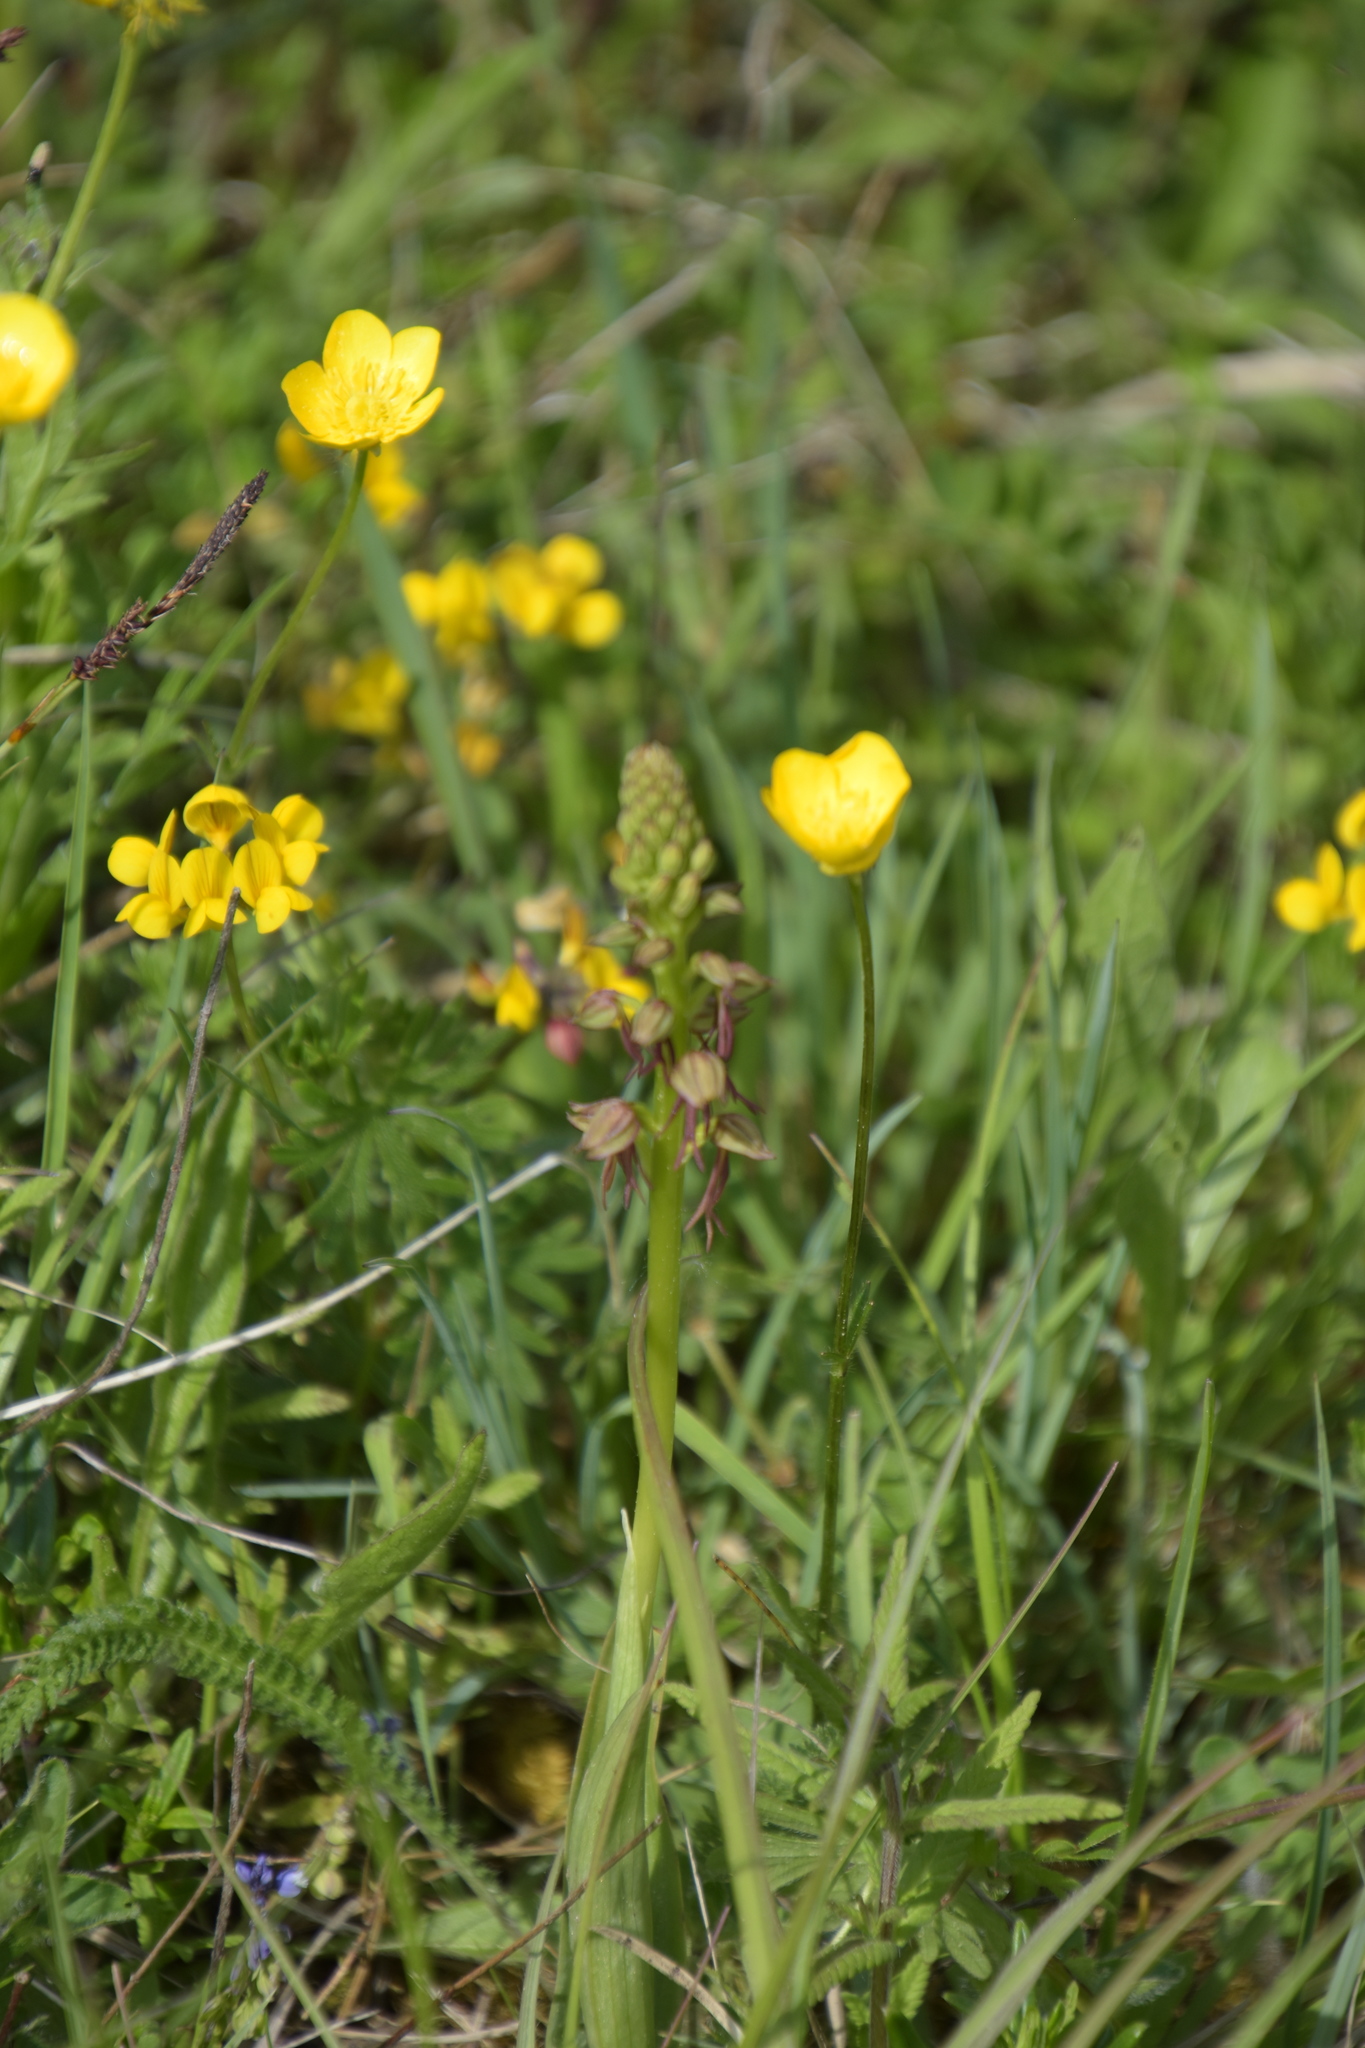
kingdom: Plantae
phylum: Tracheophyta
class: Liliopsida
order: Asparagales
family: Orchidaceae
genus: Orchis
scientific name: Orchis anthropophora
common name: Man orchid
